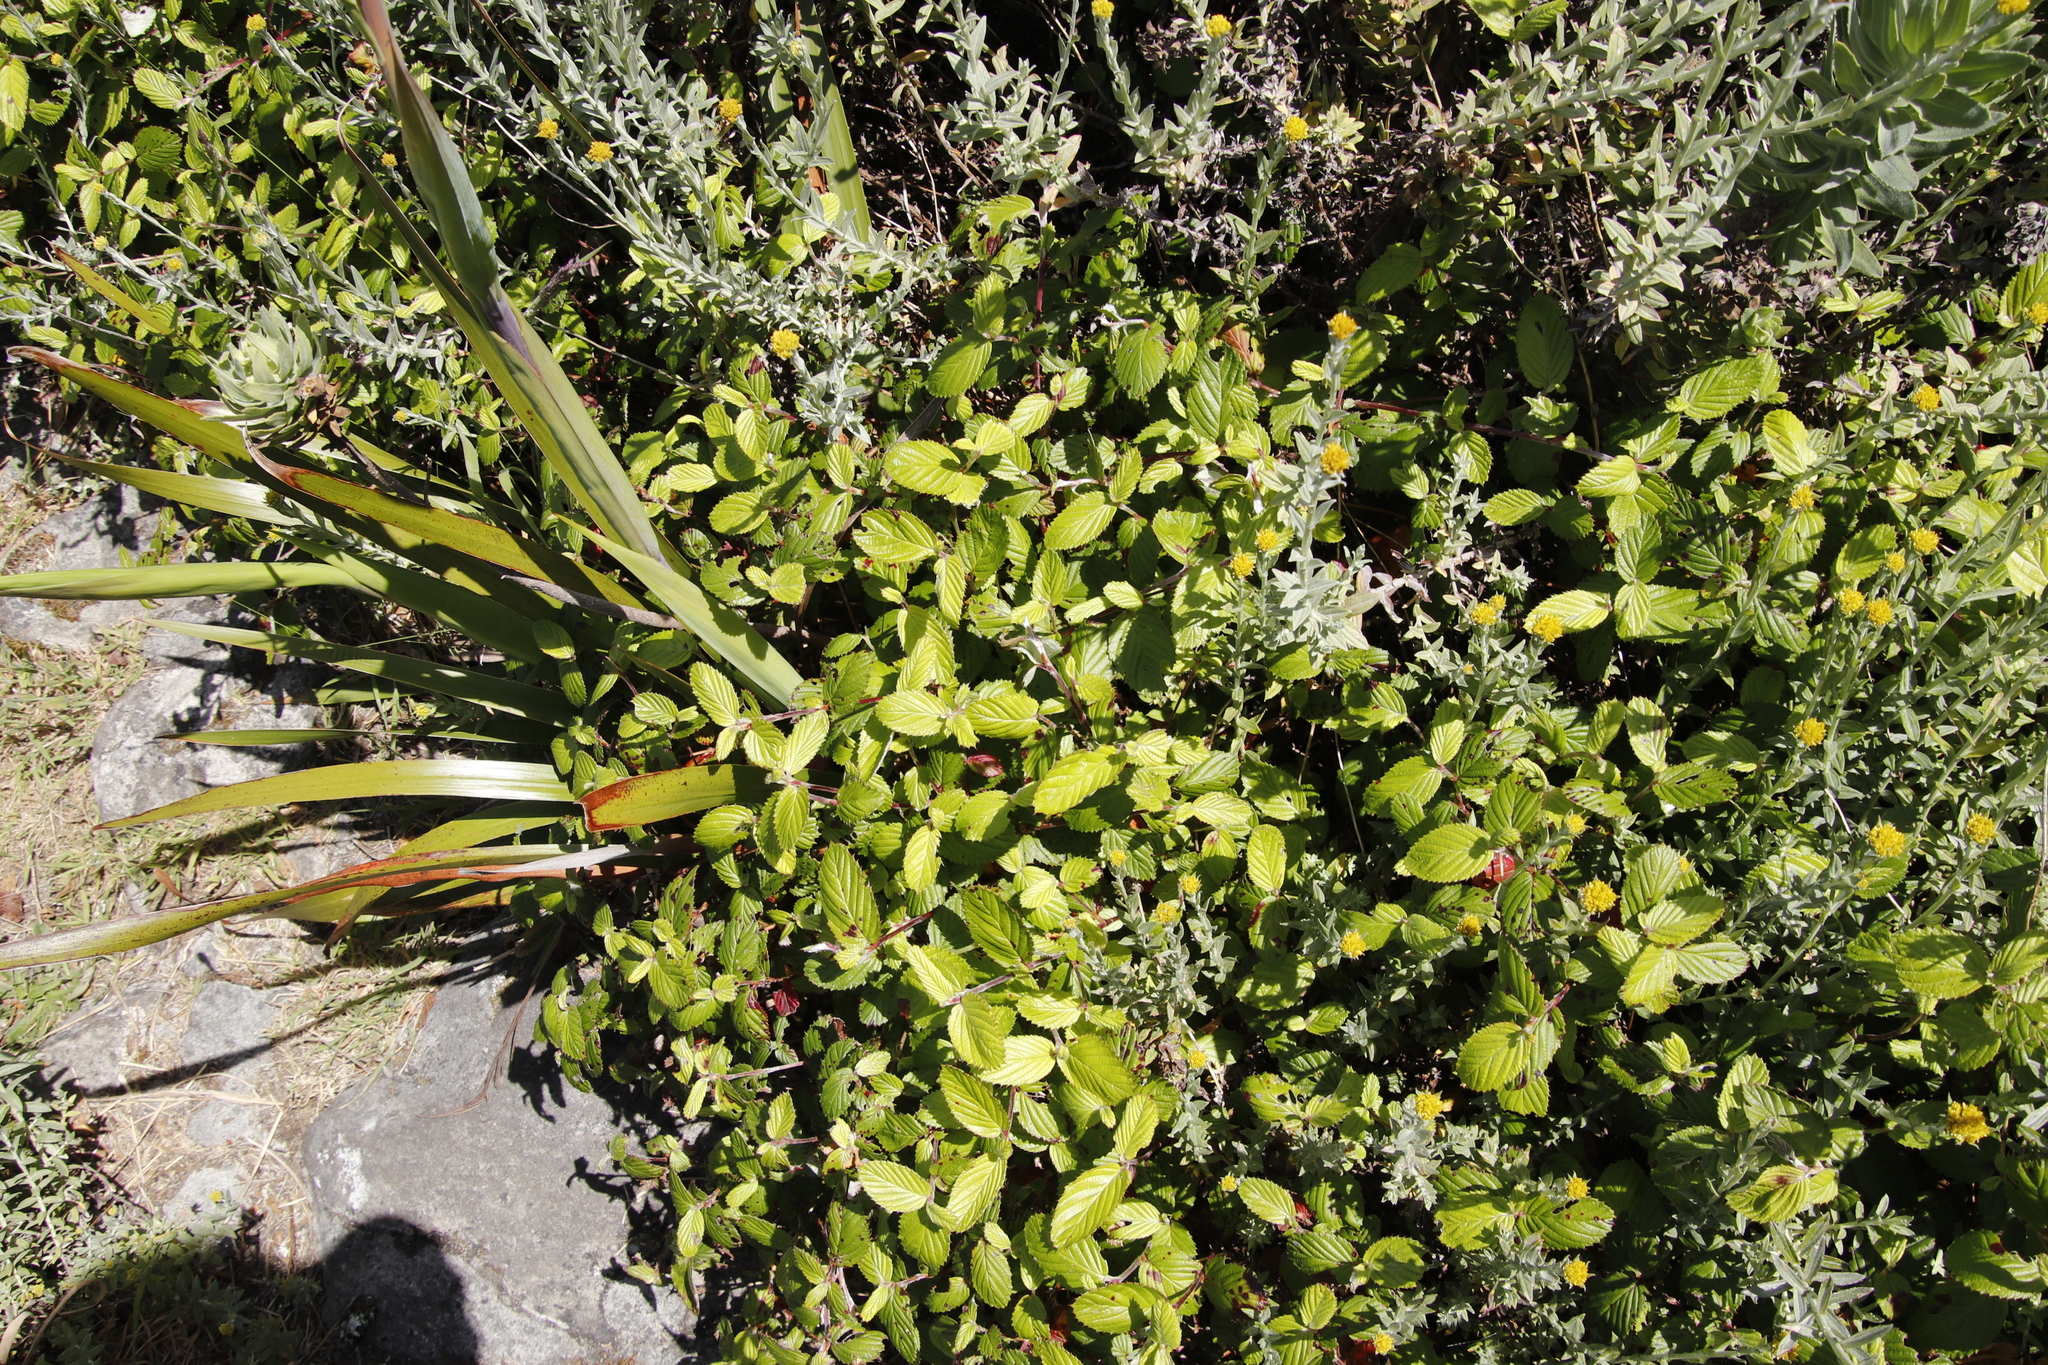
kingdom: Plantae
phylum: Tracheophyta
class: Magnoliopsida
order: Rosales
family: Rosaceae
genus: Cliffortia
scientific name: Cliffortia odorata
